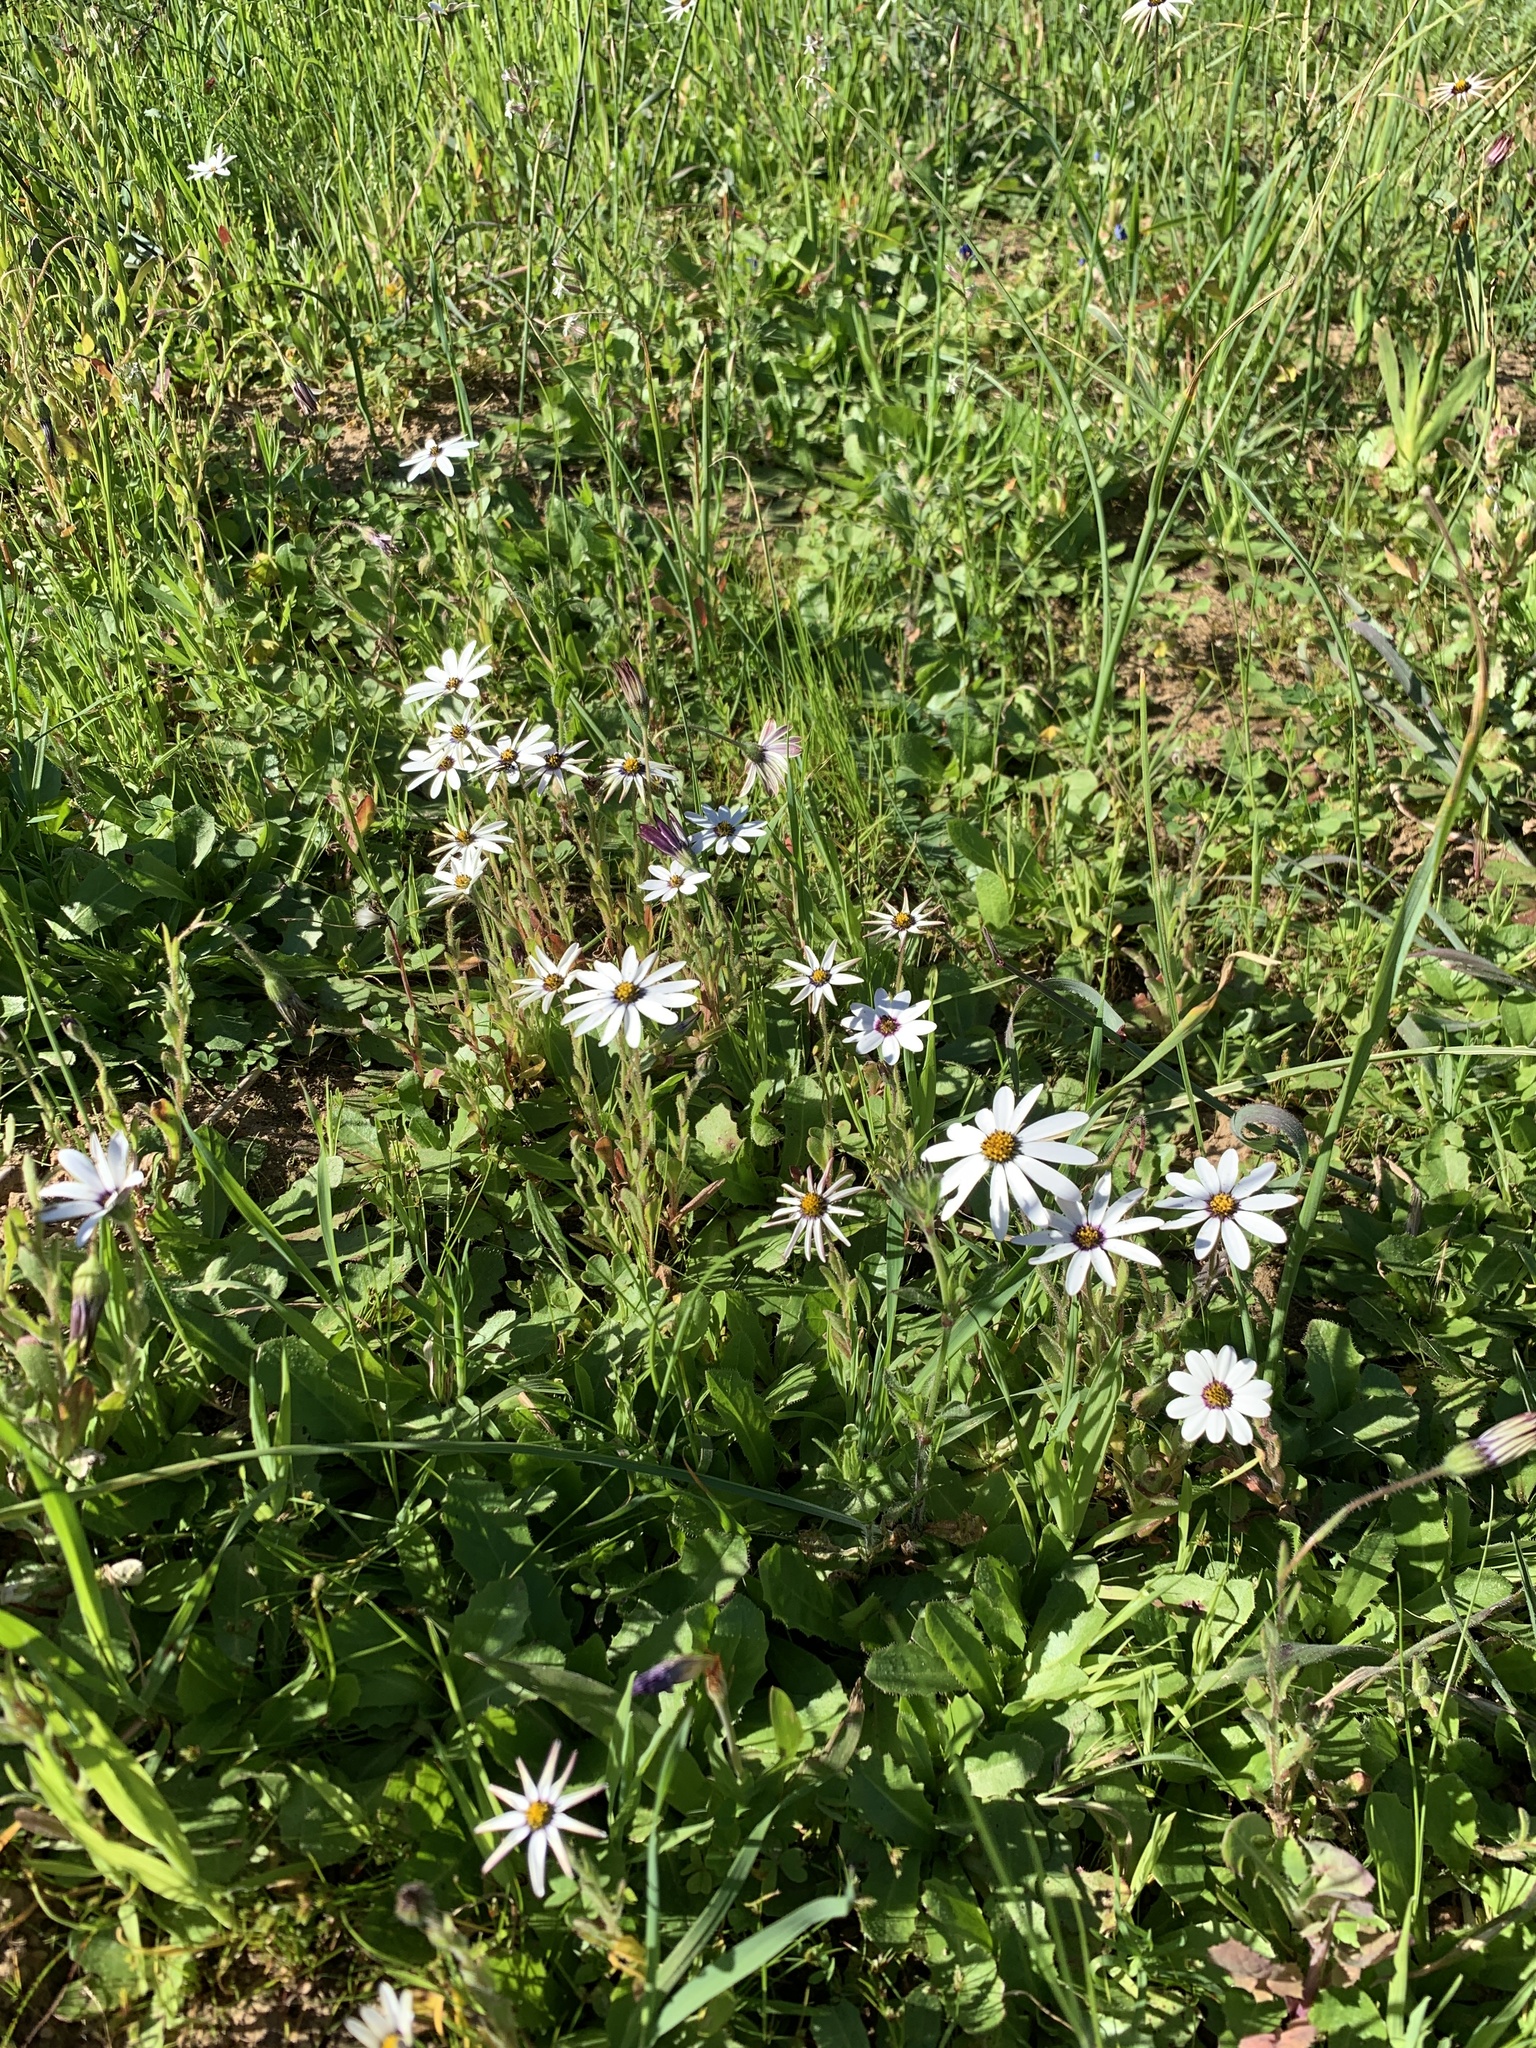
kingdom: Plantae
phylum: Tracheophyta
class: Magnoliopsida
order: Asterales
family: Asteraceae
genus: Dimorphotheca
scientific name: Dimorphotheca pluvialis
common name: Weather prophet
